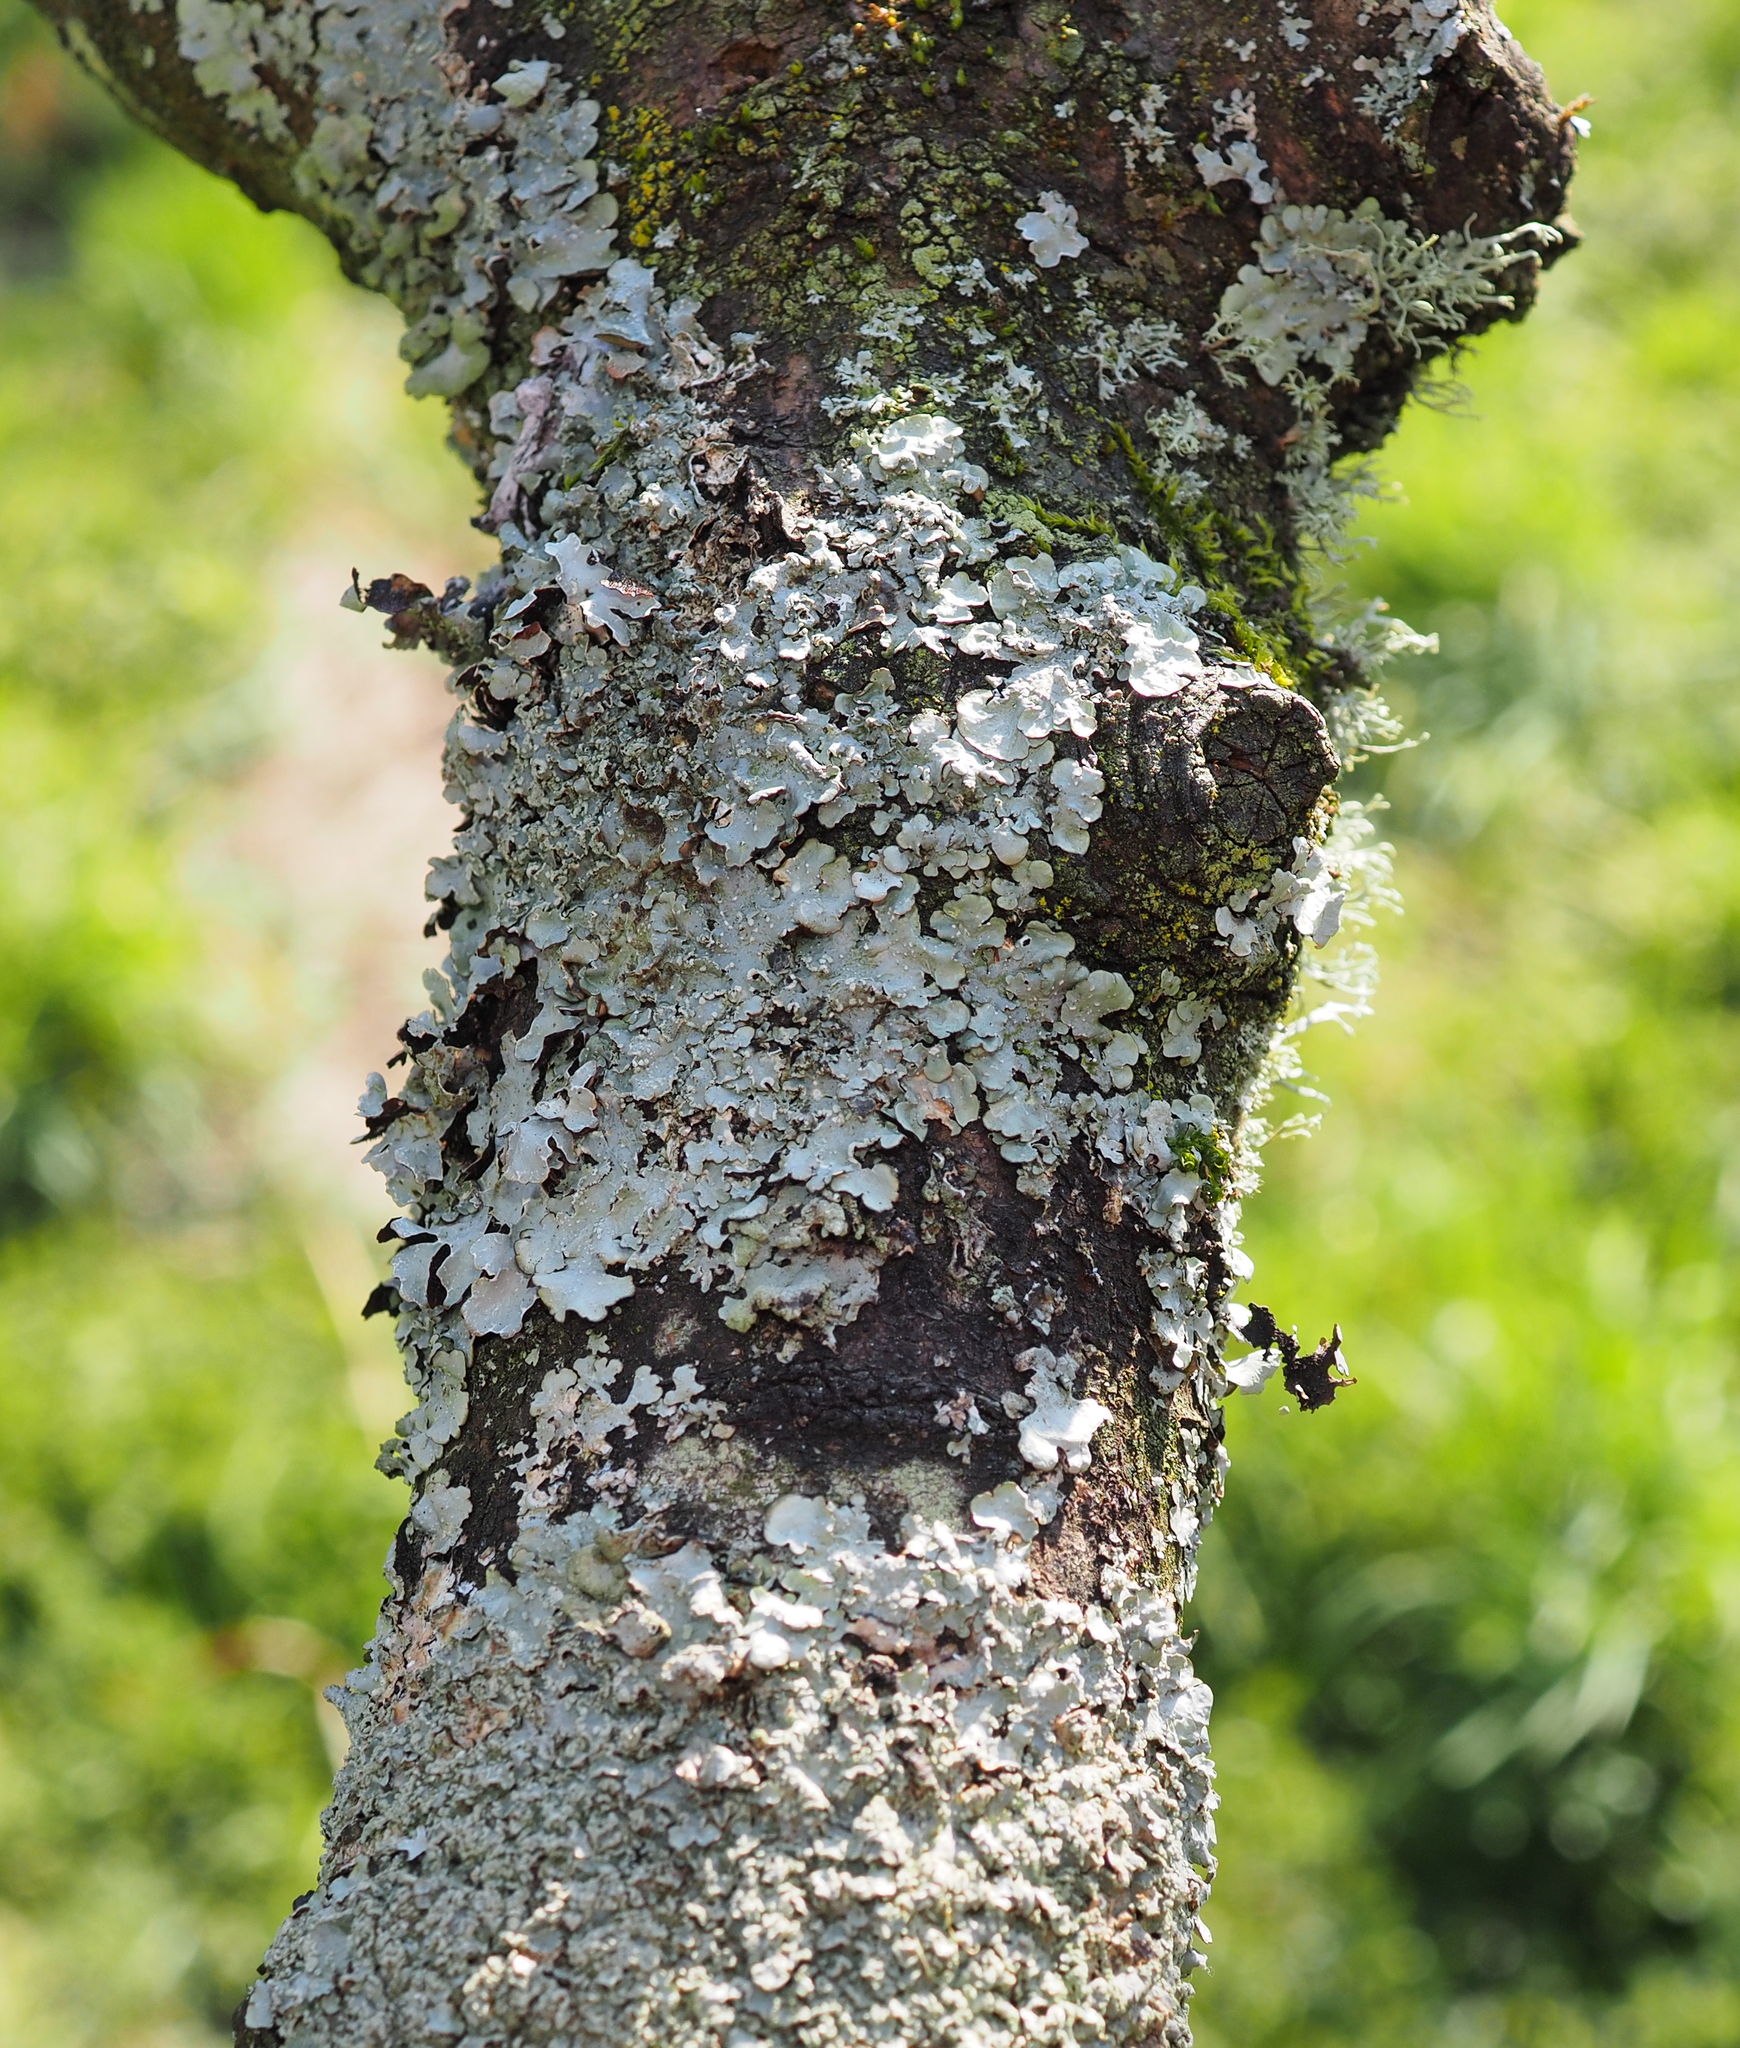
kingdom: Fungi
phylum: Ascomycota
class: Lecanoromycetes
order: Lecanorales
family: Parmeliaceae
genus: Punctelia
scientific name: Punctelia jeckeri
